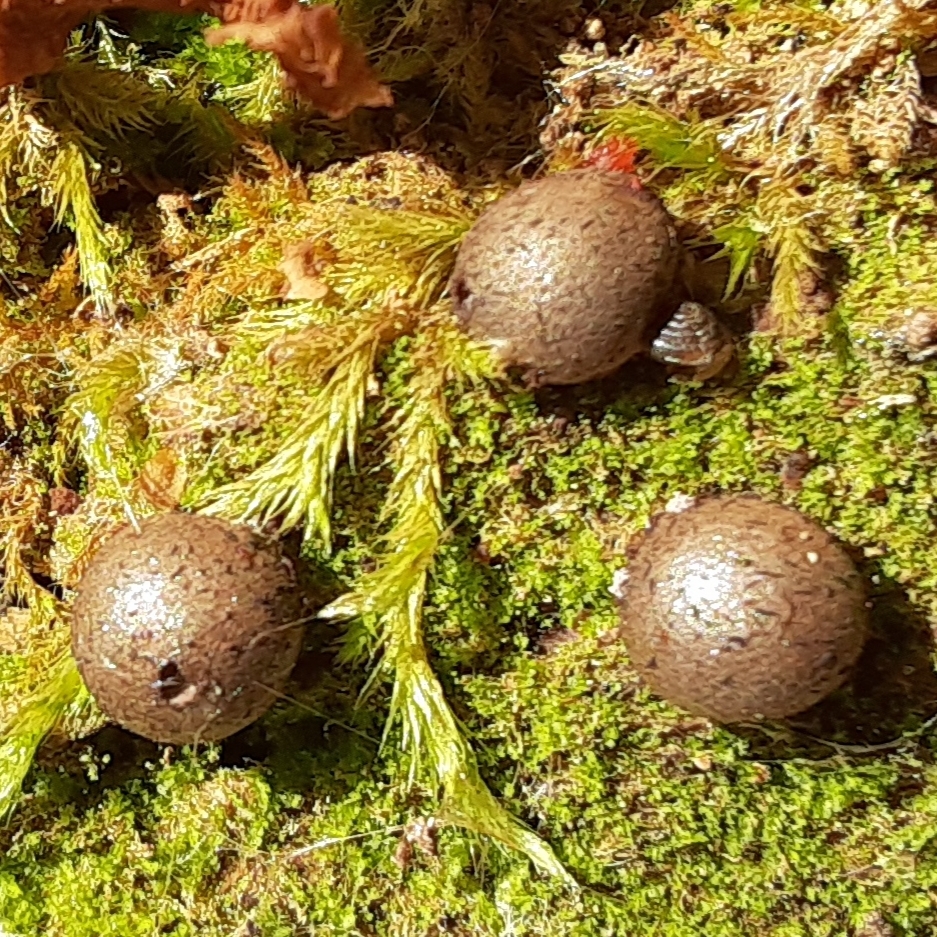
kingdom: Protozoa
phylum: Mycetozoa
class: Myxomycetes
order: Cribrariales
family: Tubiferaceae
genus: Lycogala
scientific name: Lycogala epidendrum
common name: Wolf's milk
